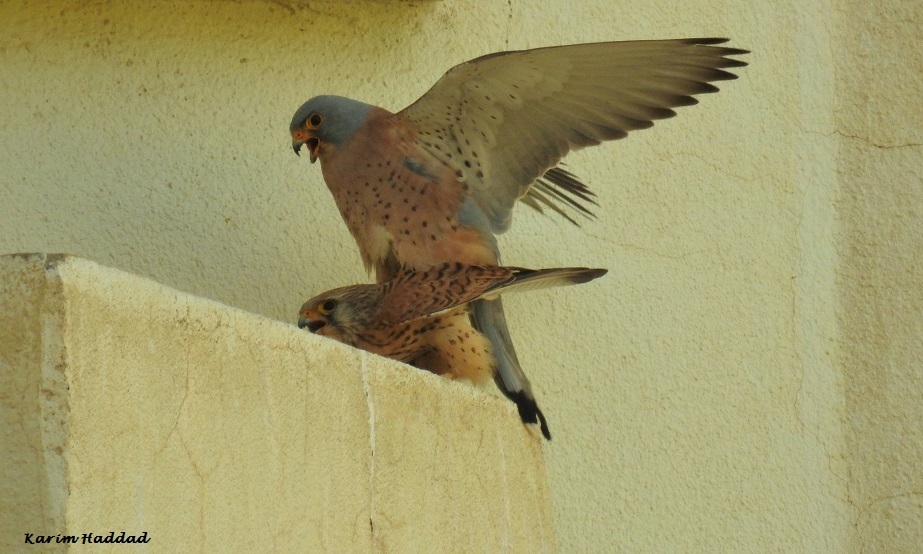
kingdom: Animalia
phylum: Chordata
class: Aves
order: Falconiformes
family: Falconidae
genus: Falco
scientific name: Falco naumanni
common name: Lesser kestrel
